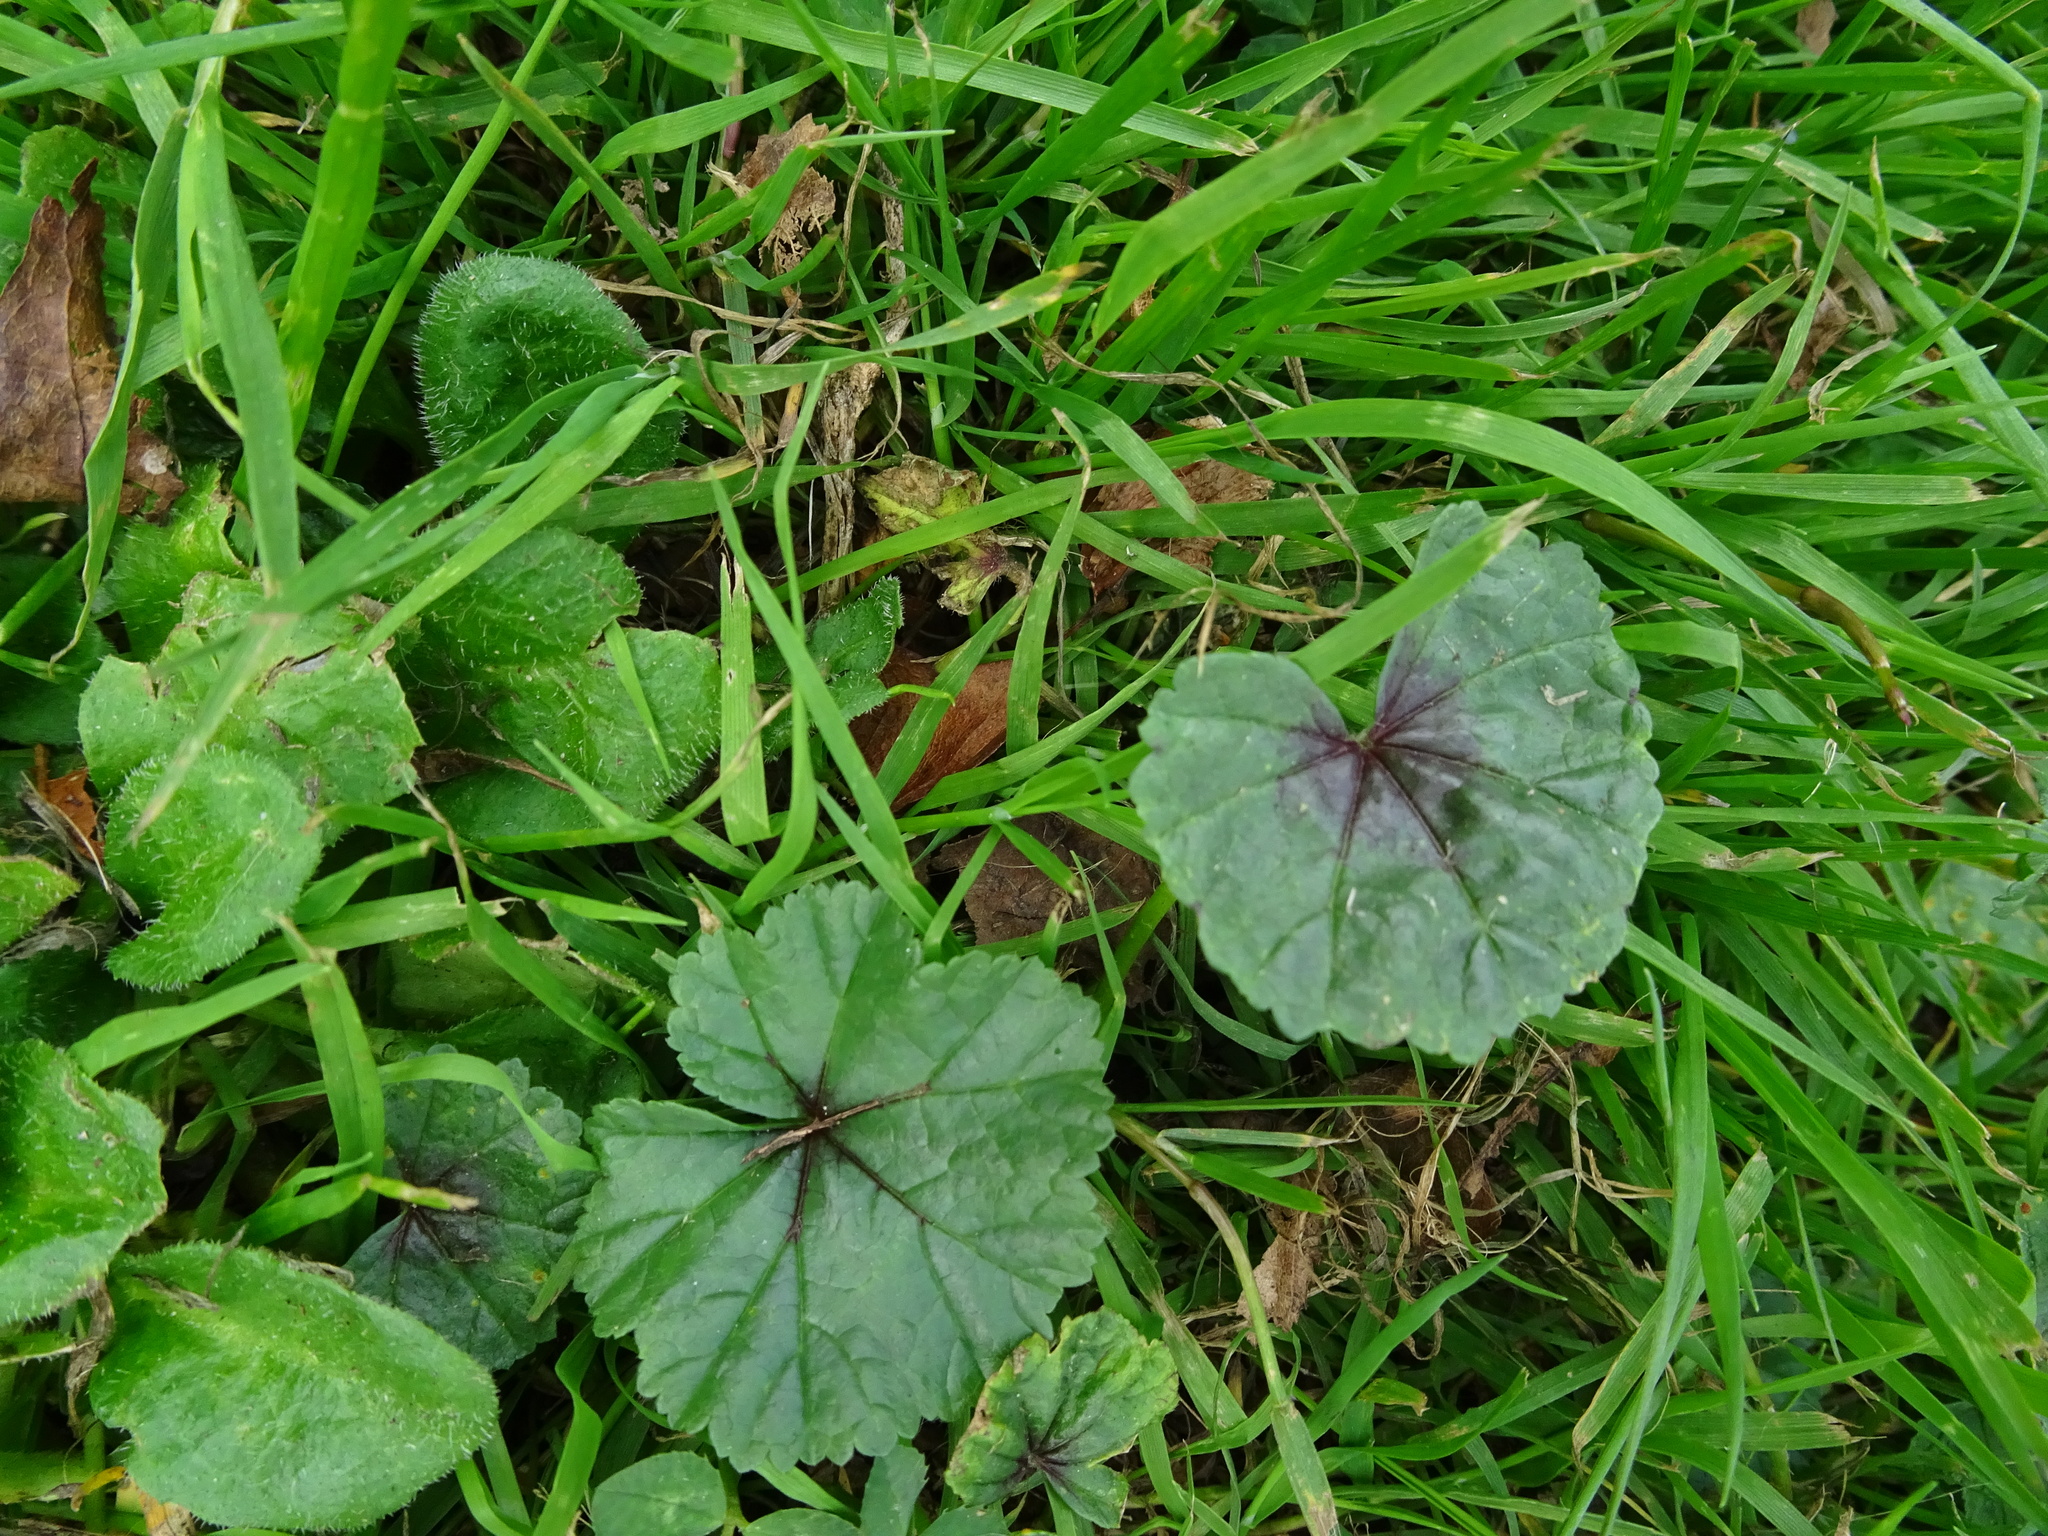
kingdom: Plantae
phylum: Tracheophyta
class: Magnoliopsida
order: Malvales
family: Malvaceae
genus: Malva
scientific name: Malva sylvestris
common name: Common mallow
